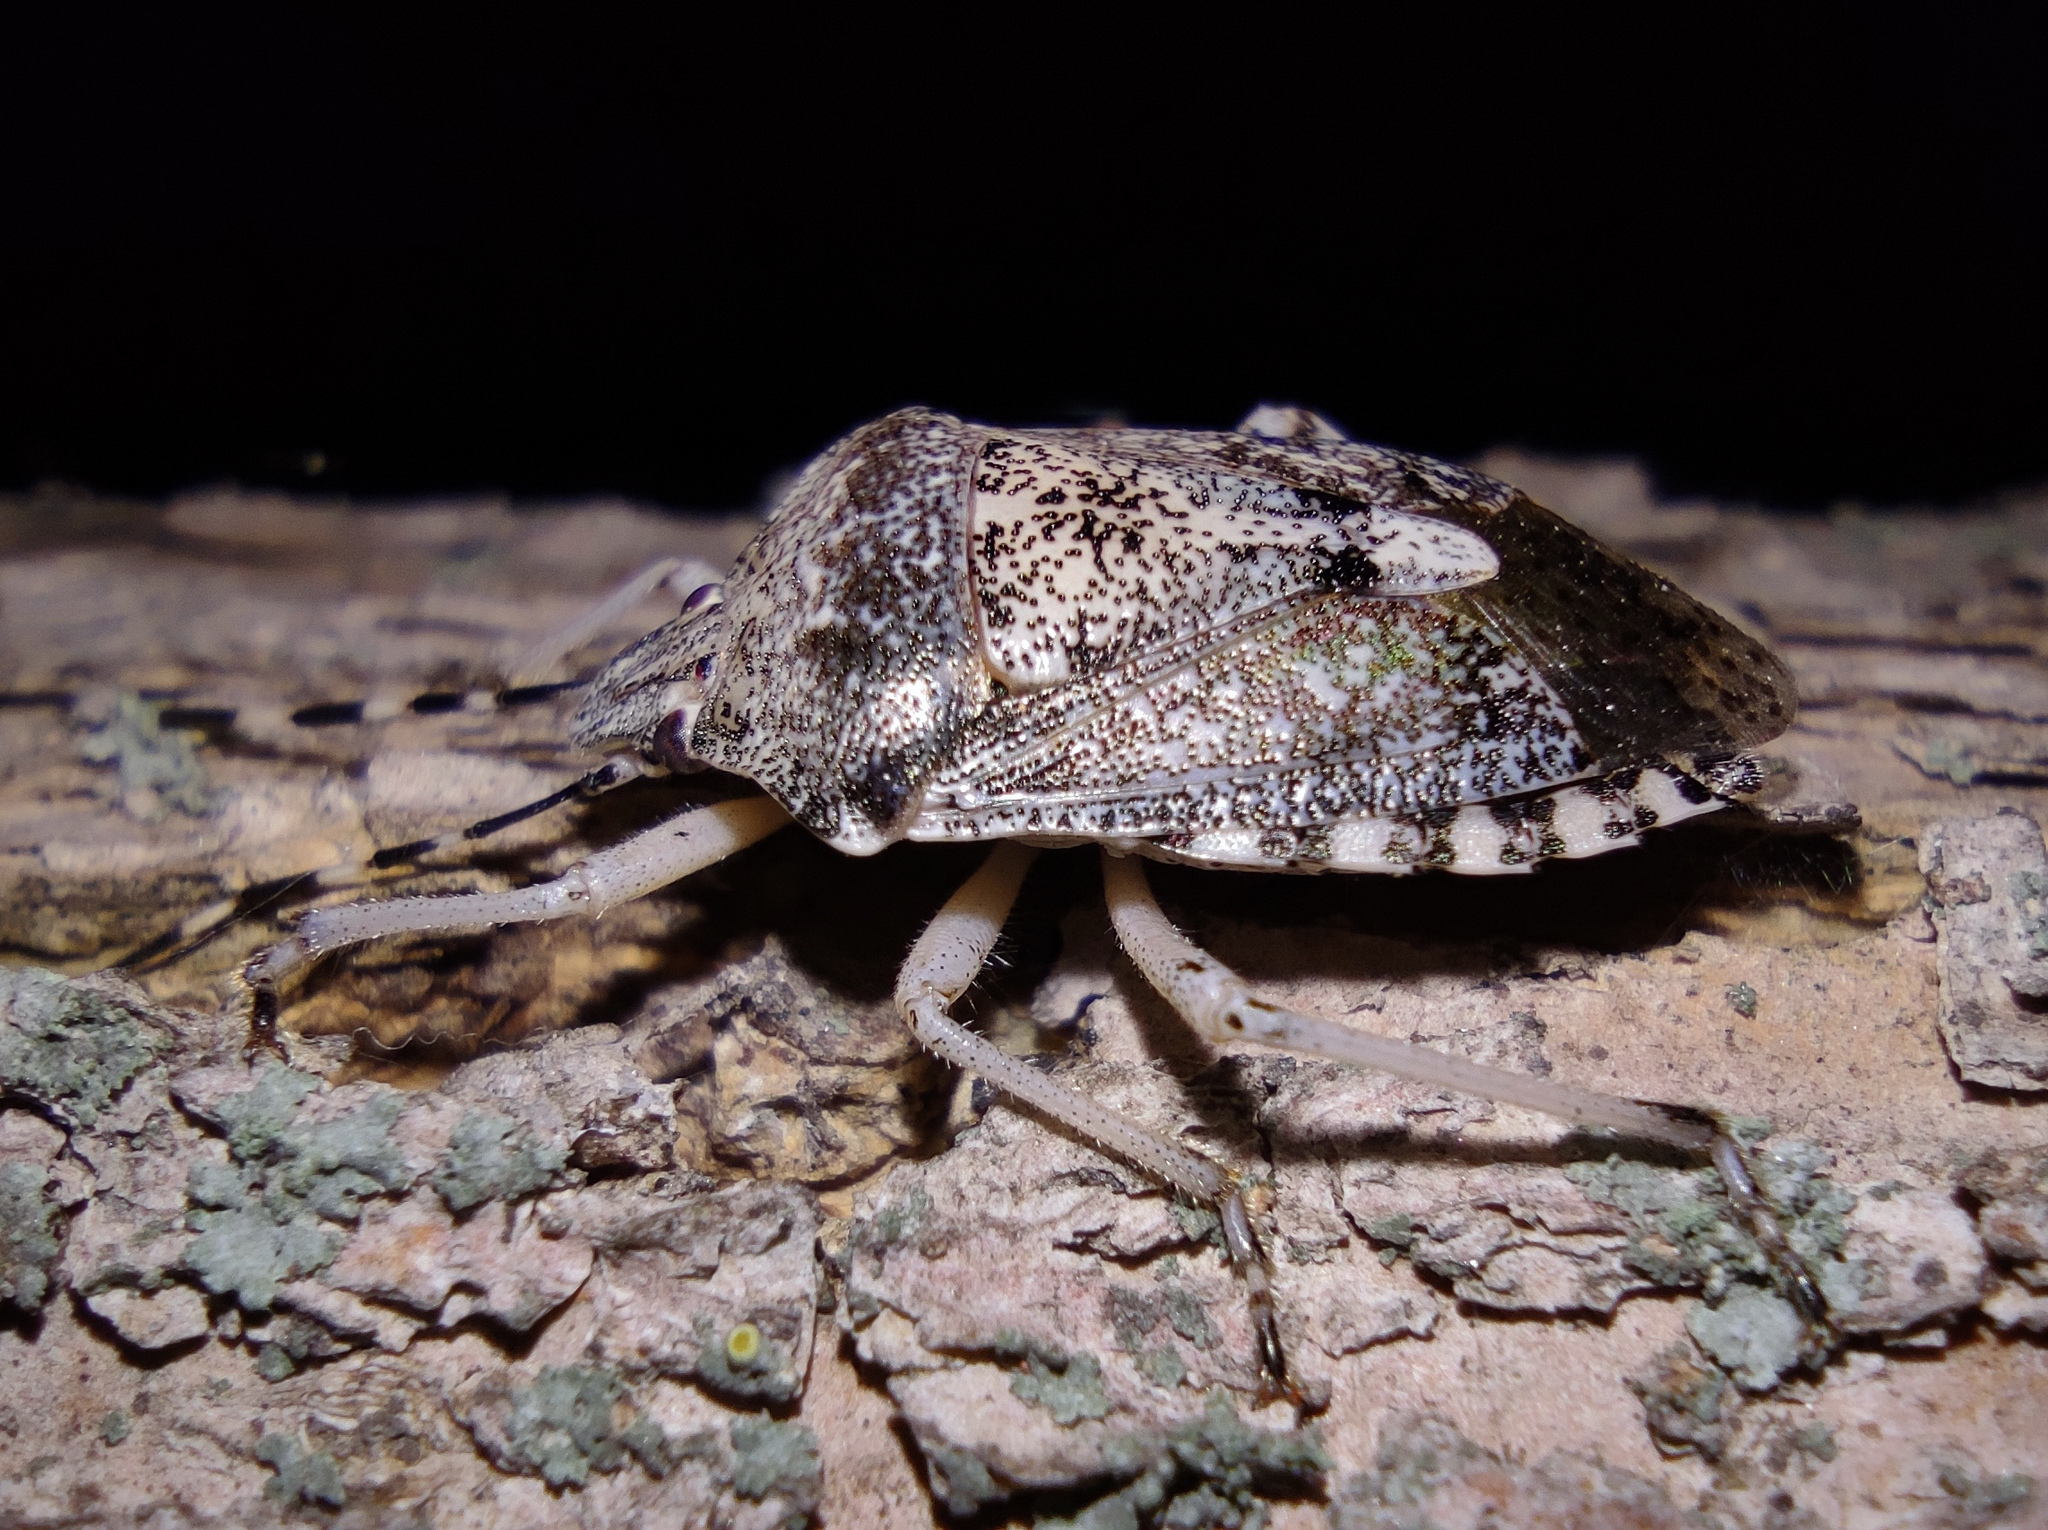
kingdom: Animalia
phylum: Arthropoda
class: Insecta
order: Hemiptera
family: Pentatomidae
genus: Rhaphigaster
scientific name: Rhaphigaster nebulosa
